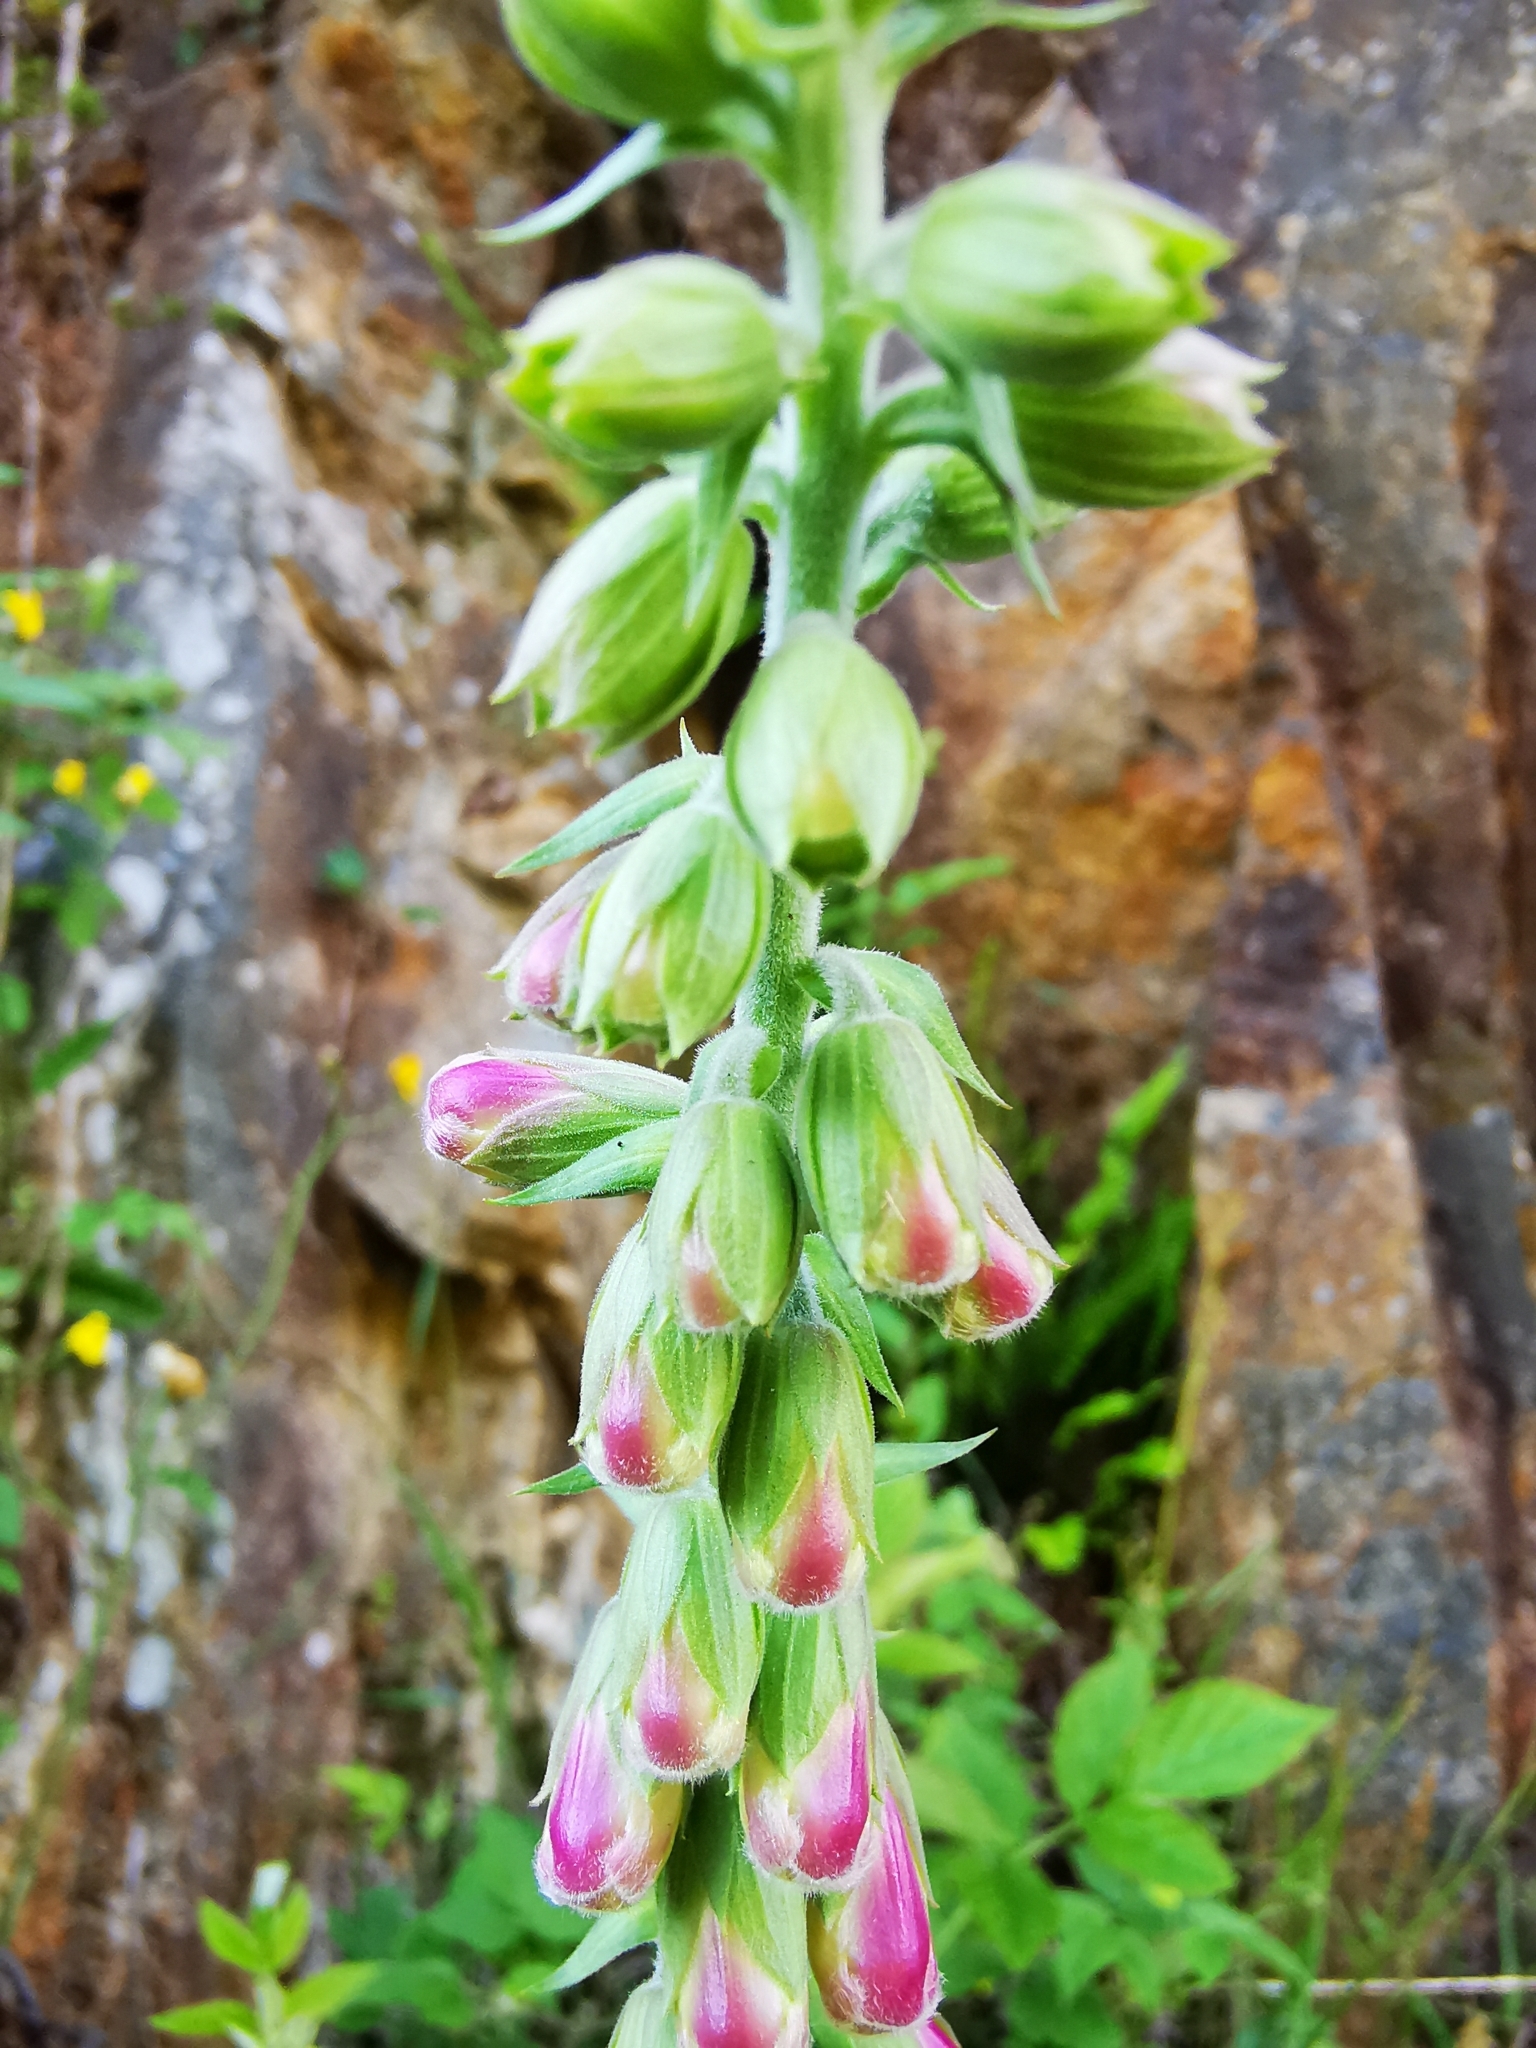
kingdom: Plantae
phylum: Tracheophyta
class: Magnoliopsida
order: Lamiales
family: Plantaginaceae
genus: Digitalis
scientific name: Digitalis purpurea
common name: Foxglove
